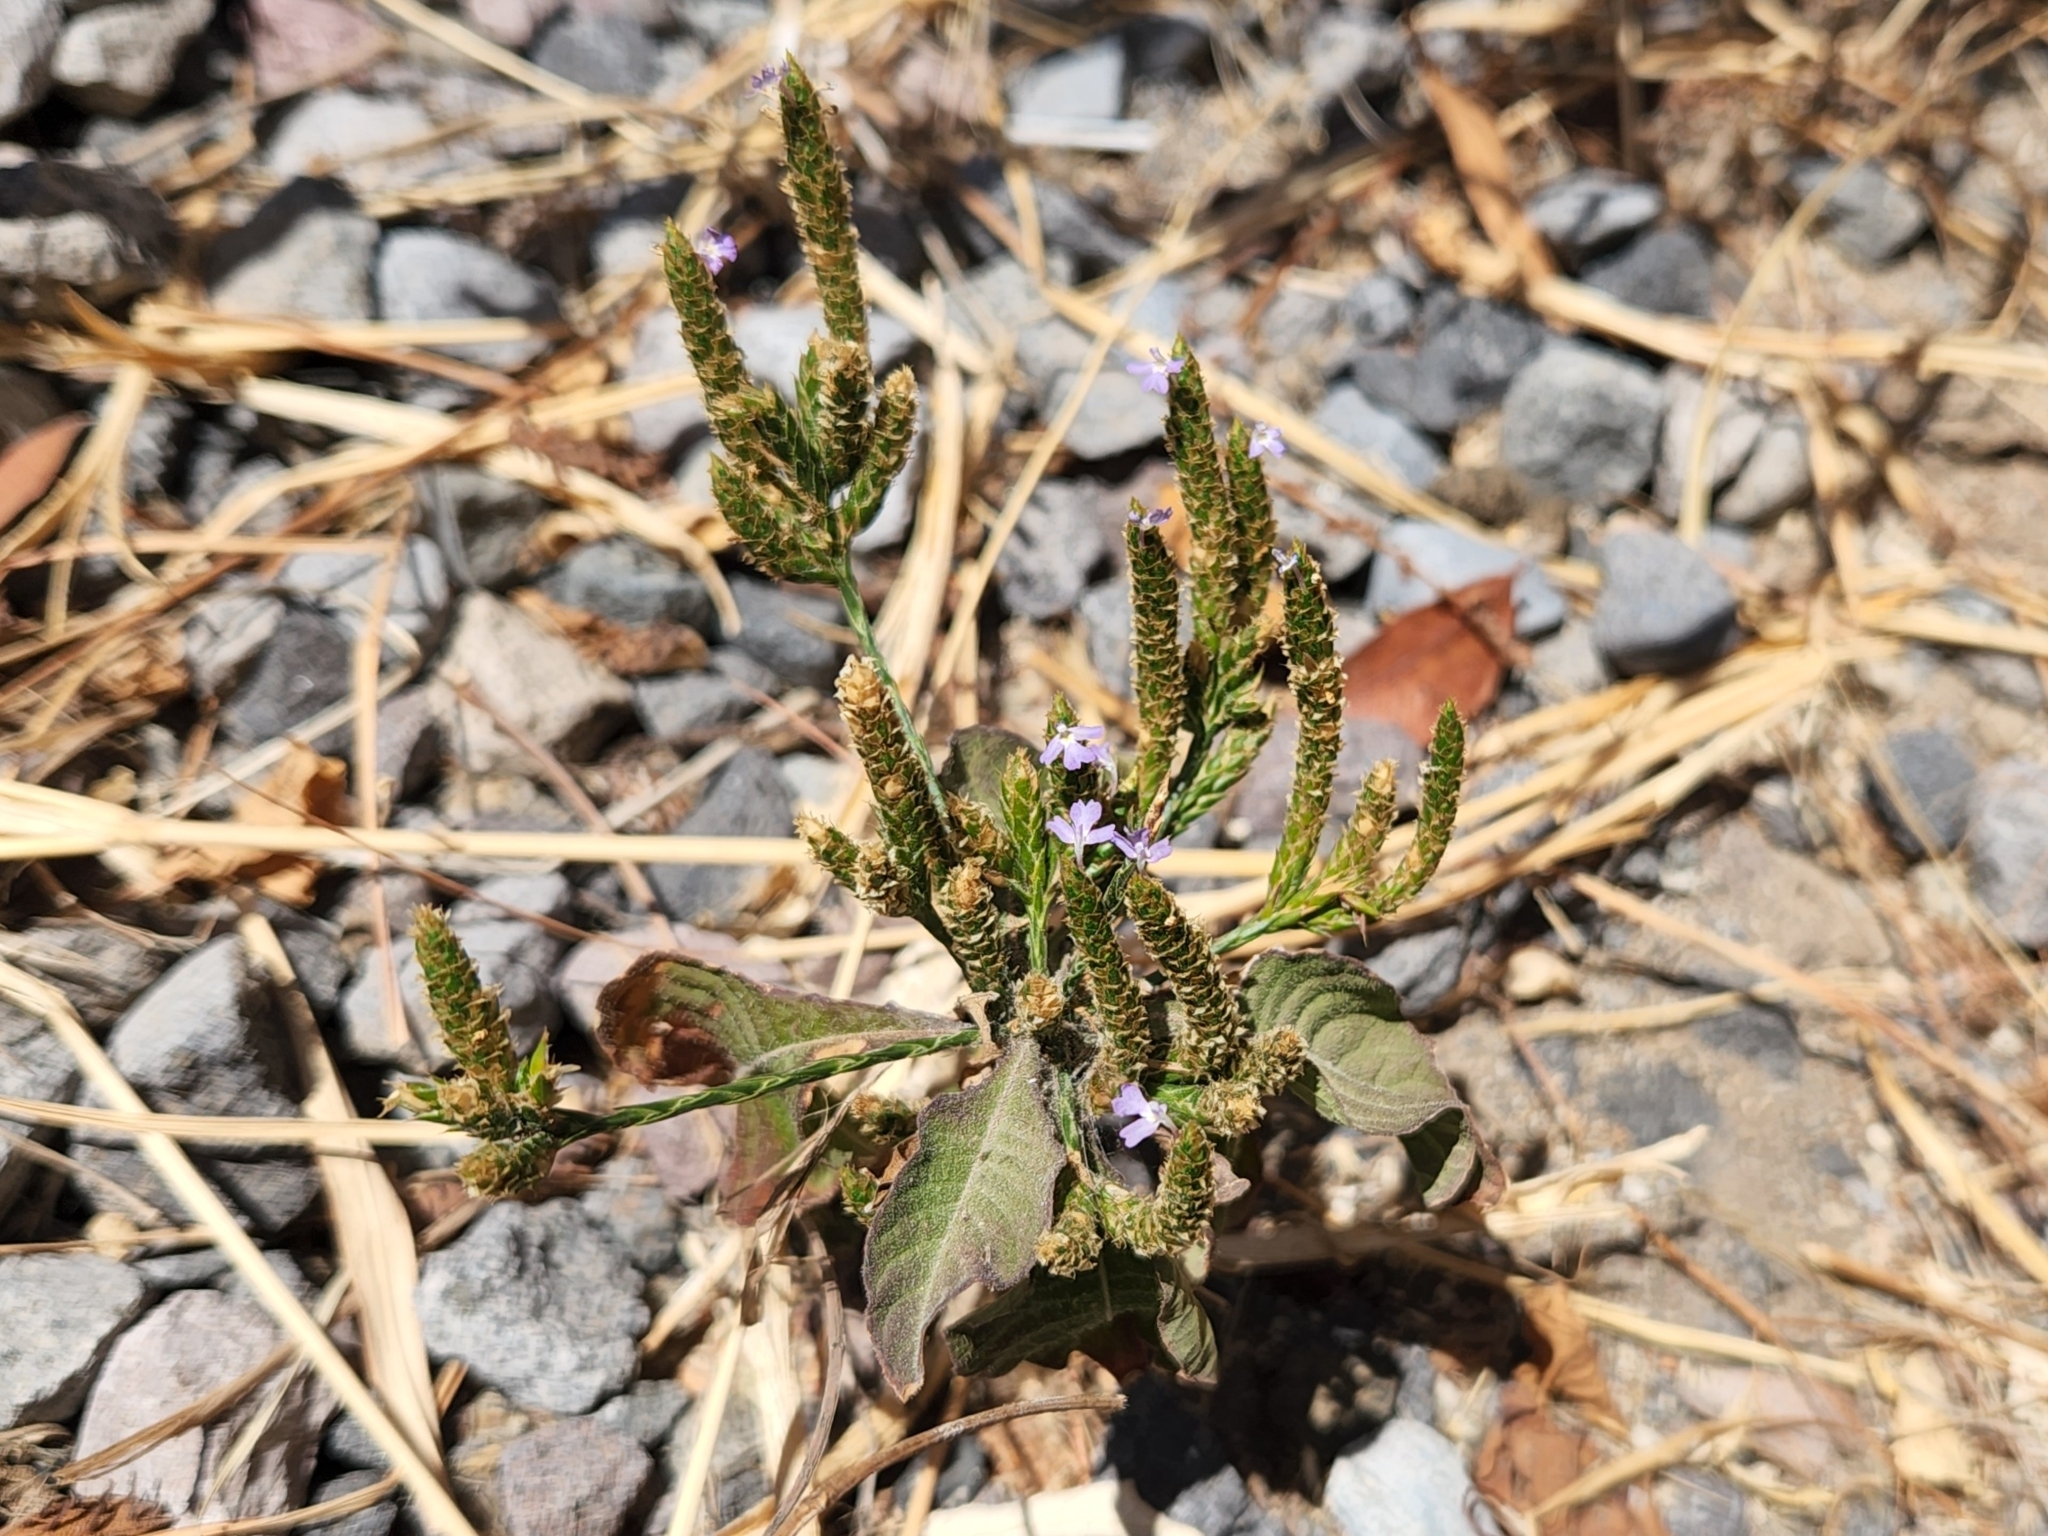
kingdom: Plantae
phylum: Tracheophyta
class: Magnoliopsida
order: Lamiales
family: Acanthaceae
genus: Elytraria
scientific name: Elytraria imbricata
